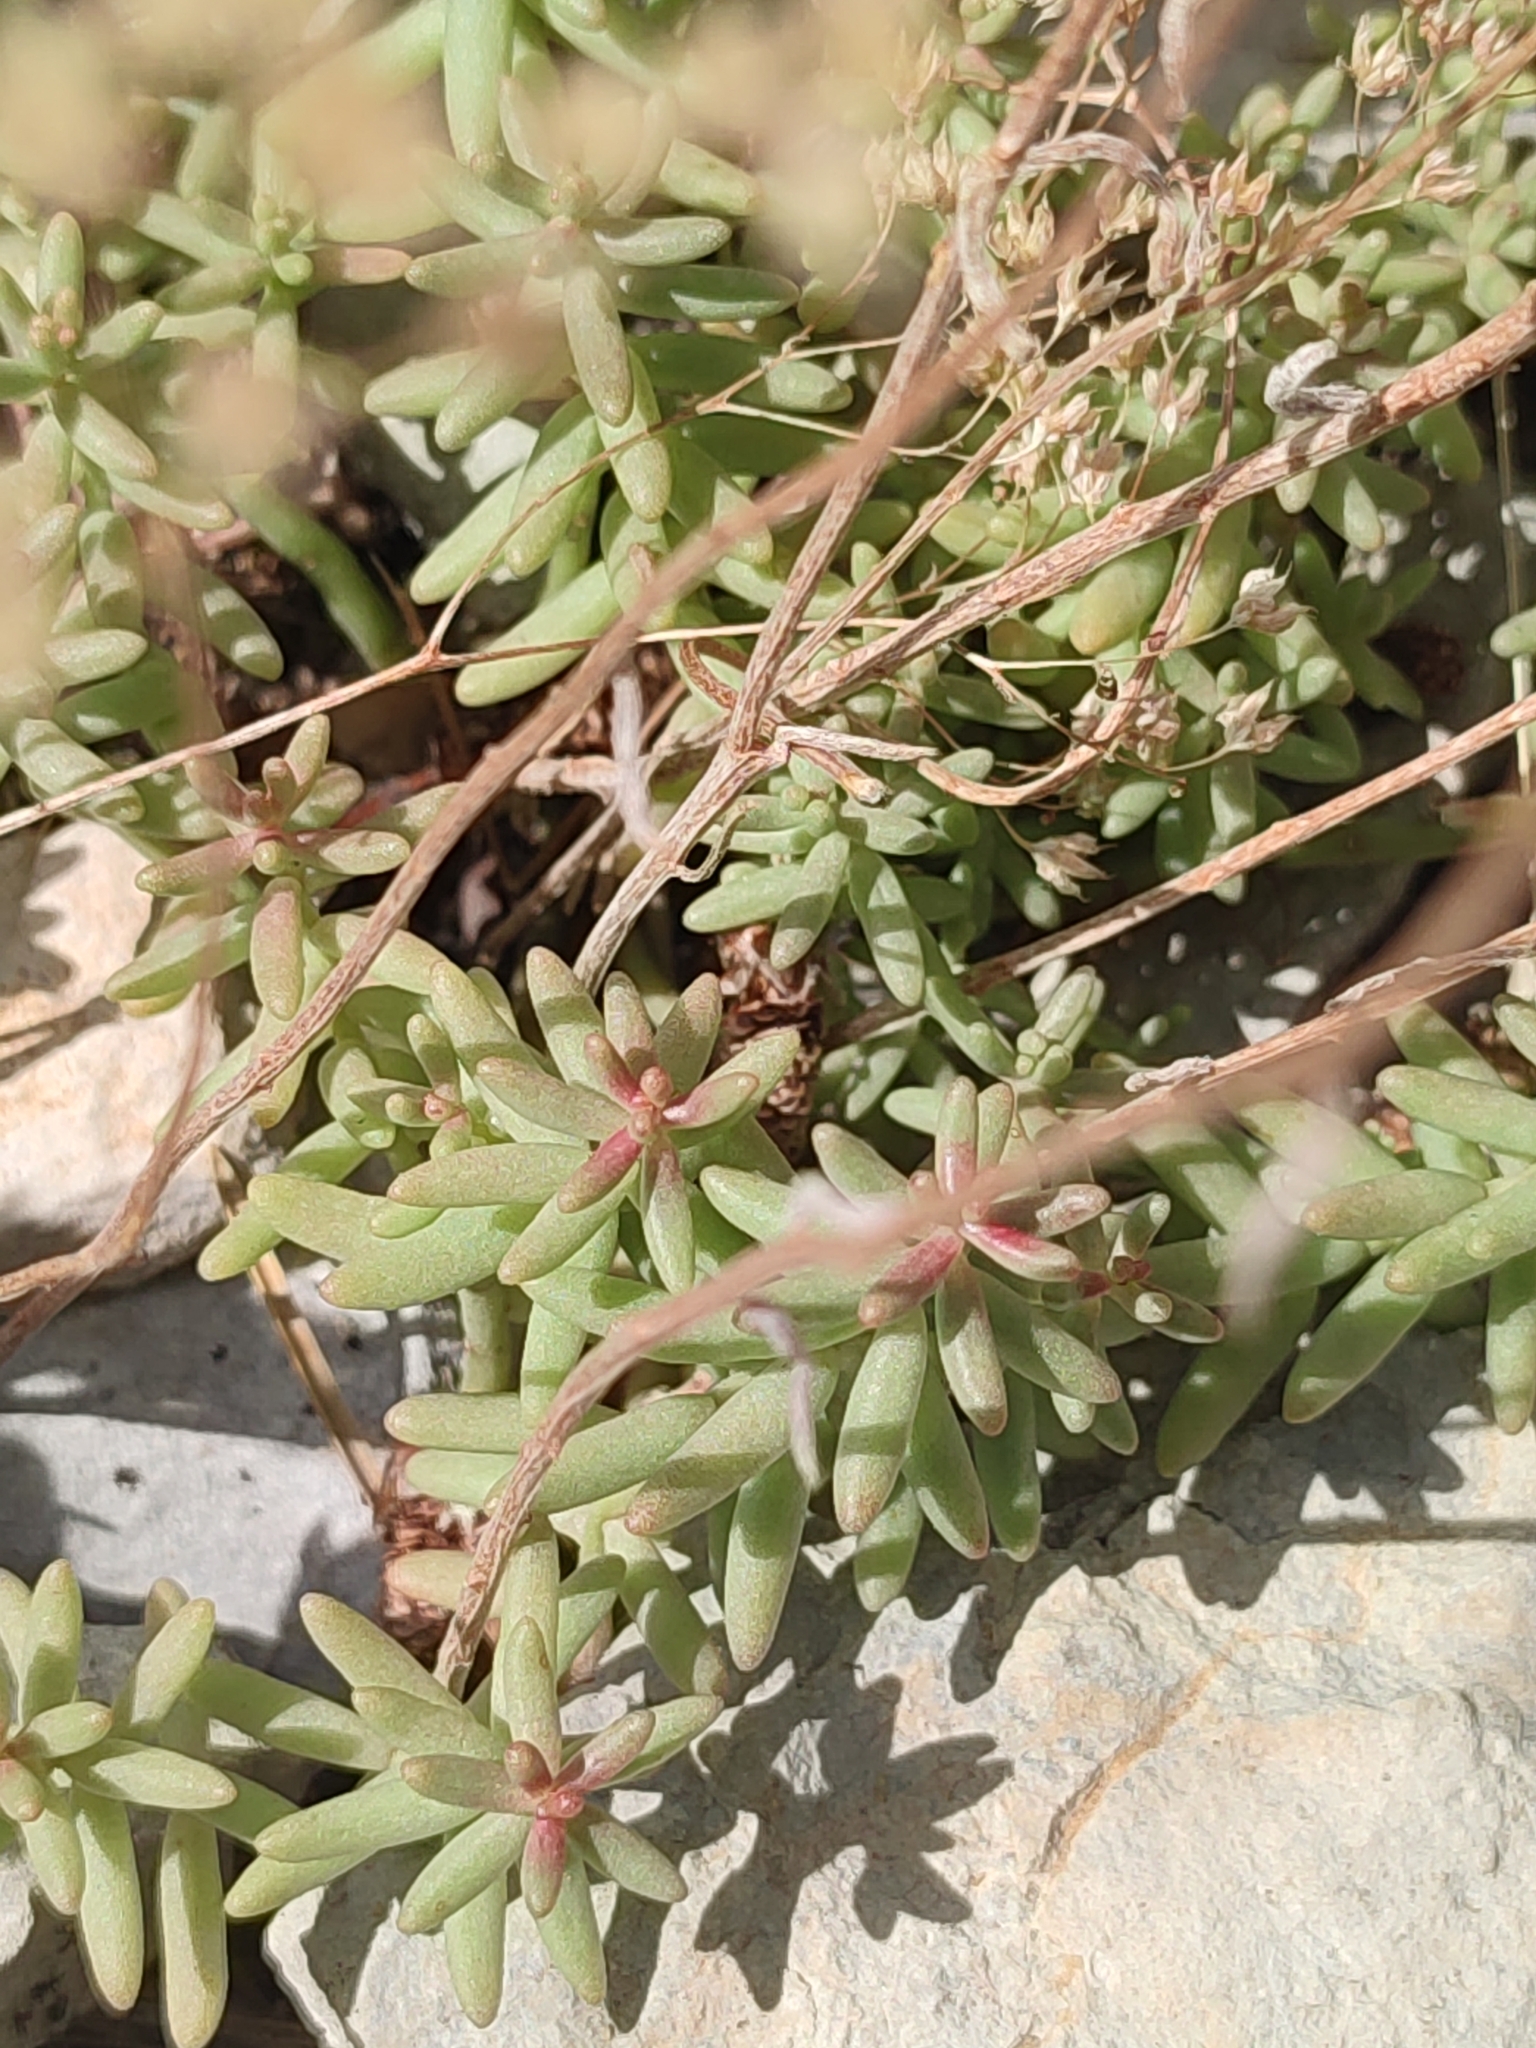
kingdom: Plantae
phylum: Tracheophyta
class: Magnoliopsida
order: Saxifragales
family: Crassulaceae
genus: Sedum
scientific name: Sedum album
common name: White stonecrop
